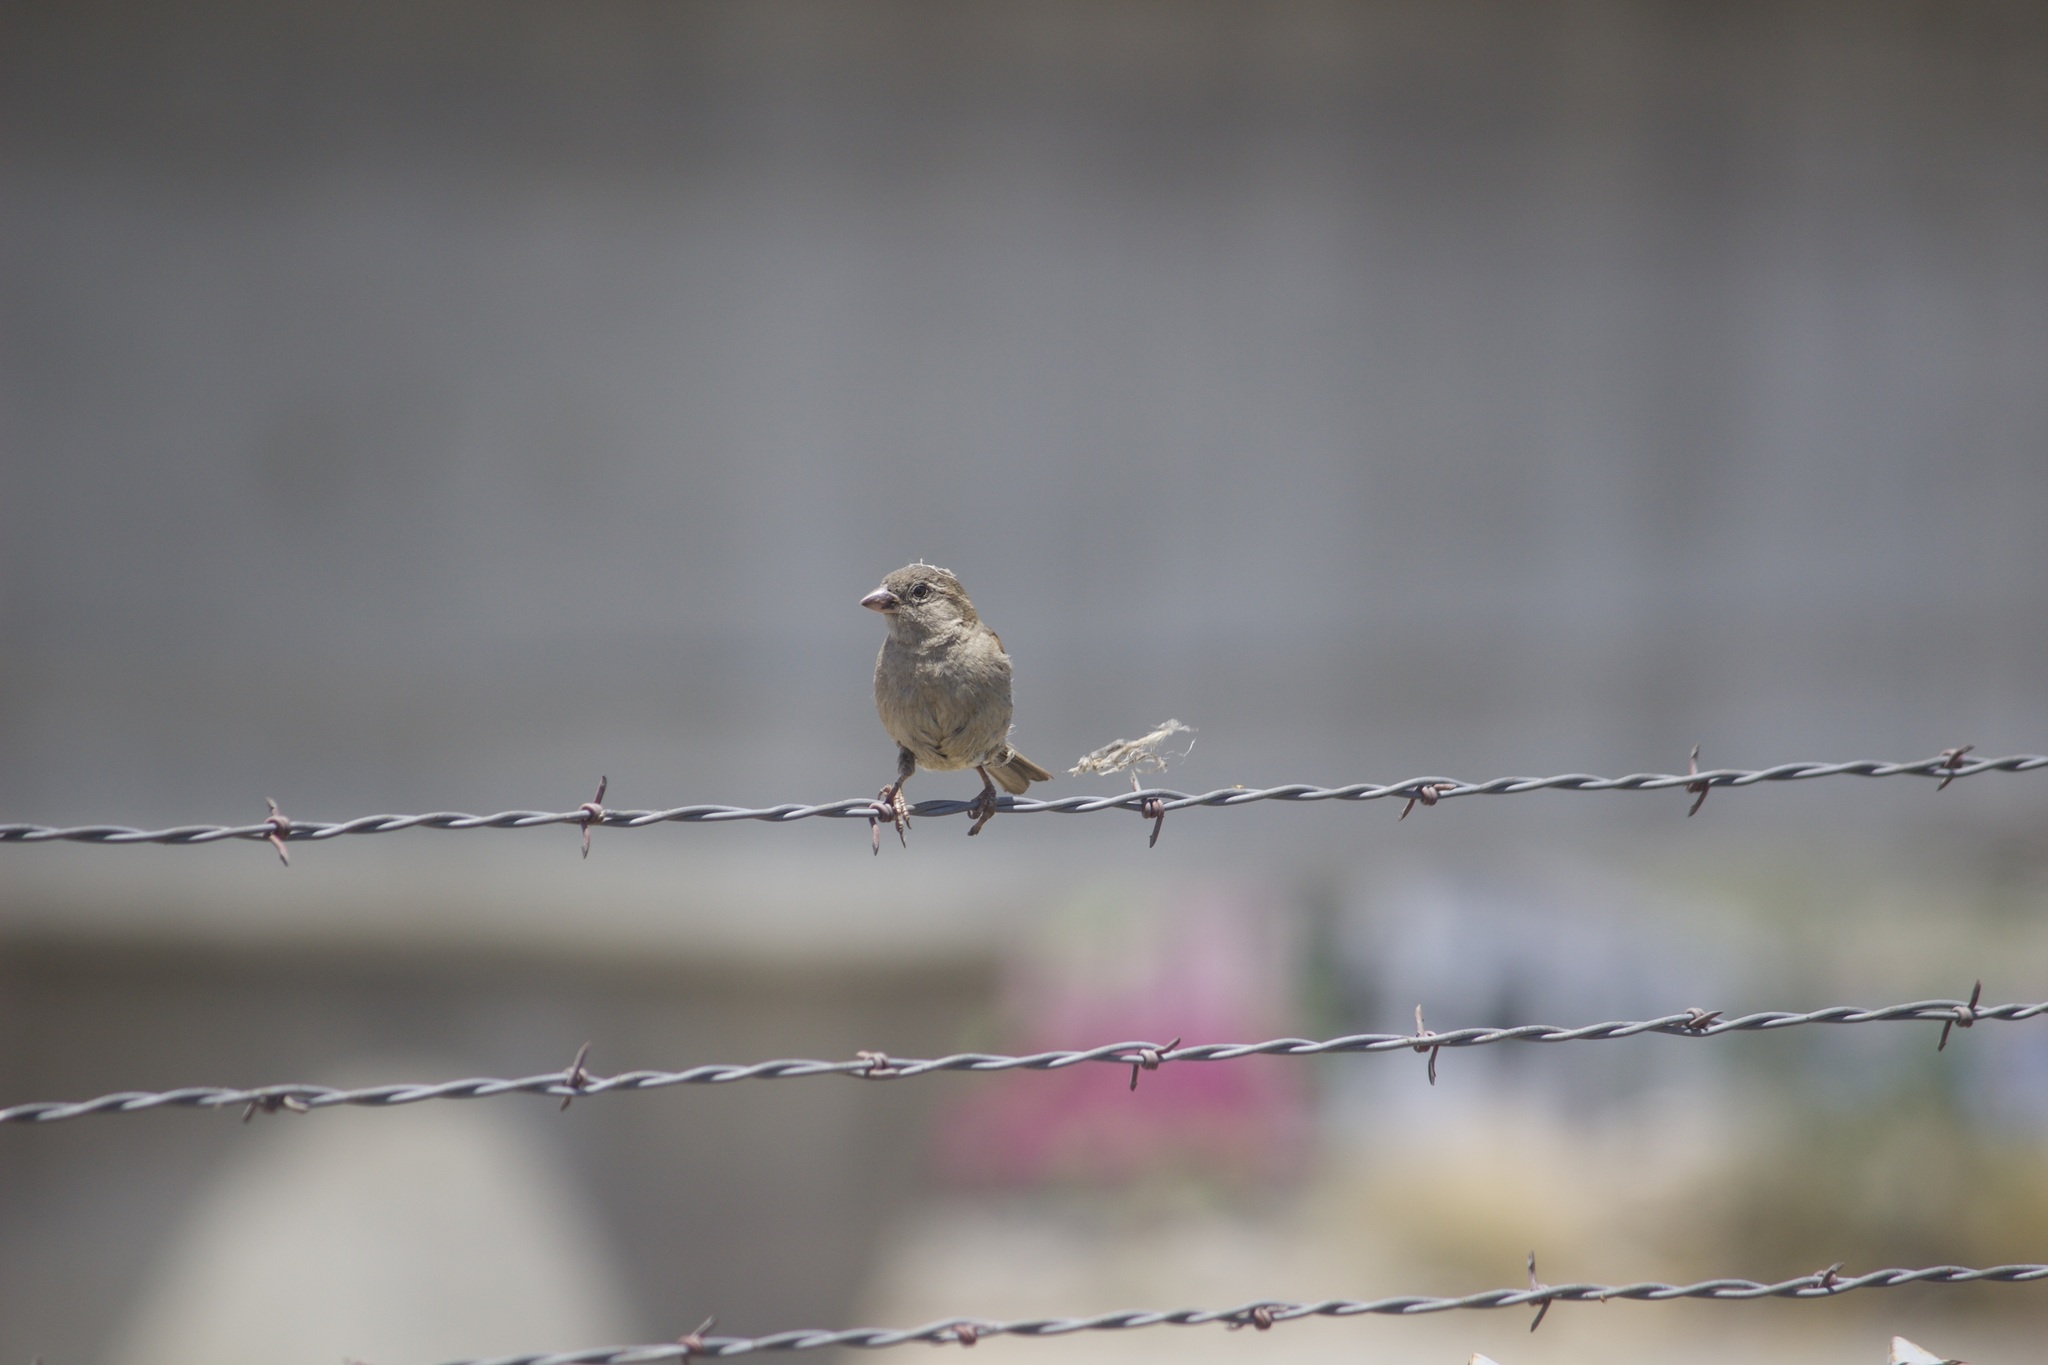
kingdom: Animalia
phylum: Chordata
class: Aves
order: Passeriformes
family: Passeridae
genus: Passer
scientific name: Passer domesticus
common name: House sparrow
